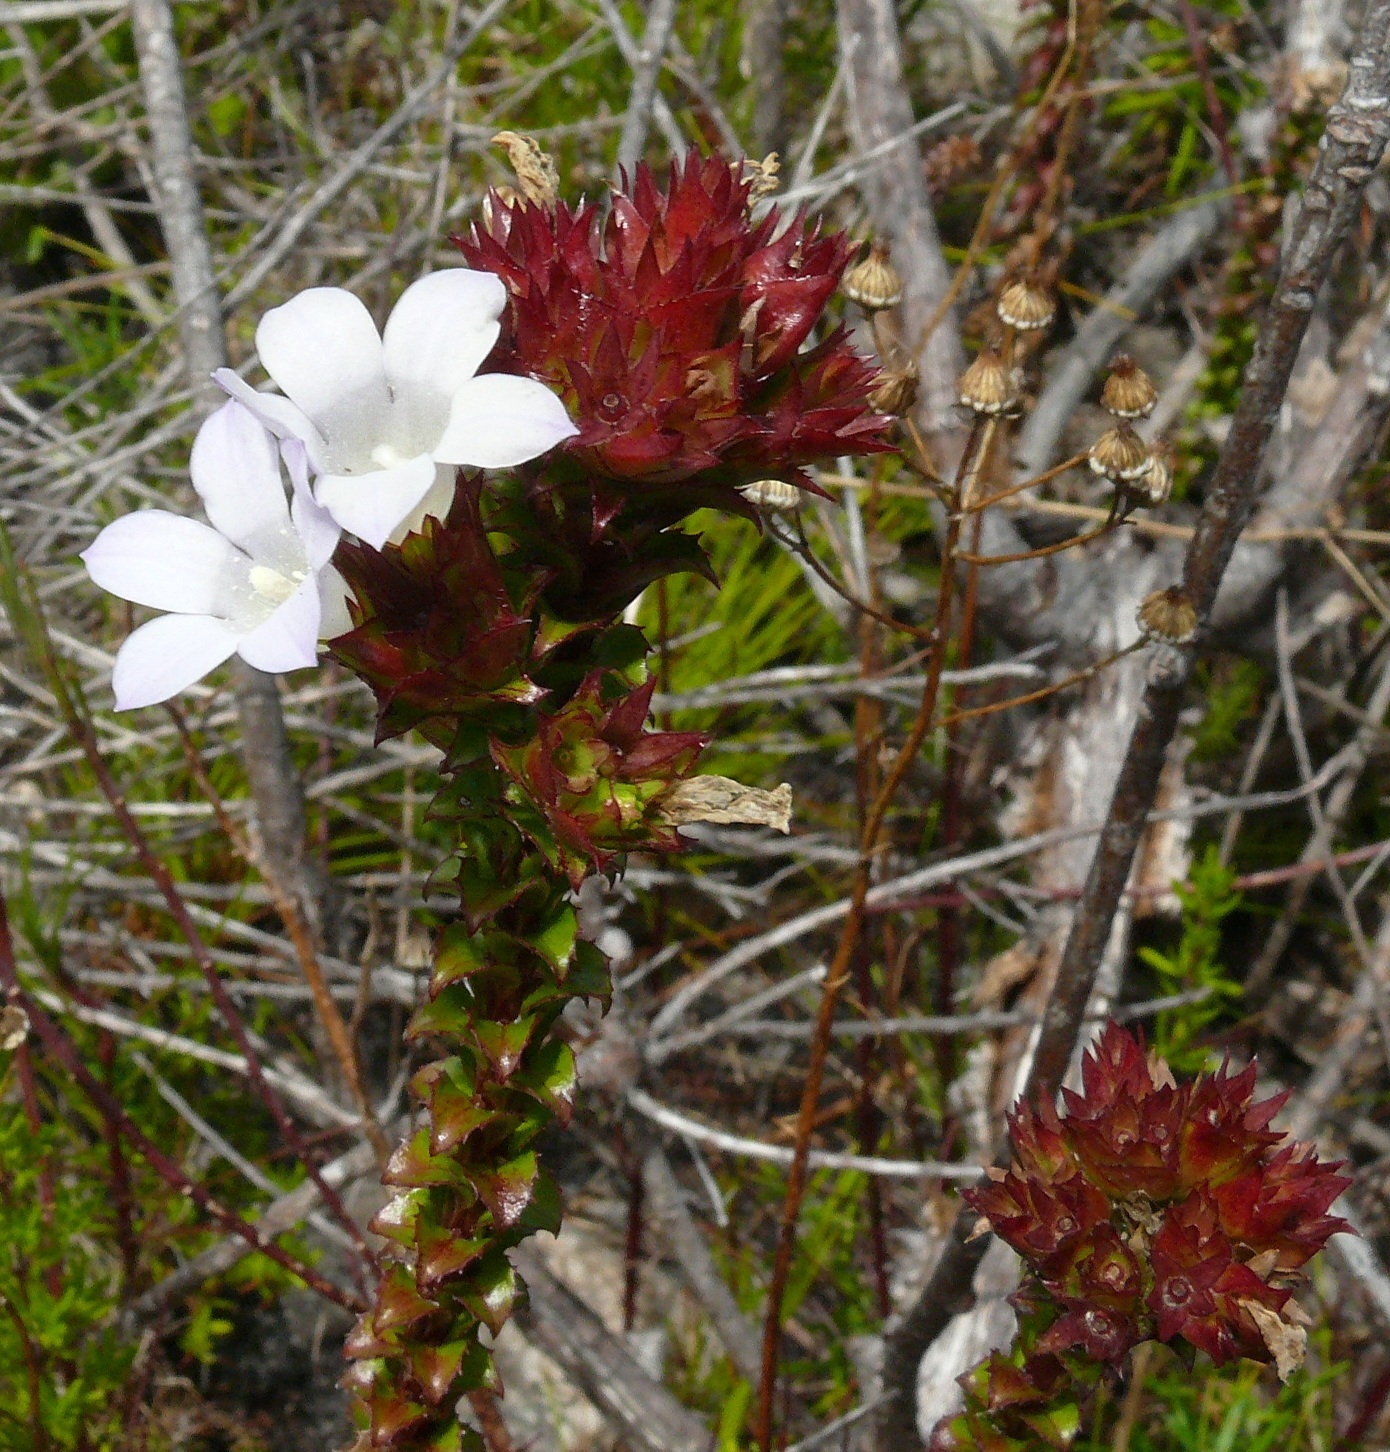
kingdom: Plantae
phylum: Tracheophyta
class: Magnoliopsida
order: Asterales
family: Campanulaceae
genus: Roella
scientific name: Roella amplexicaulis
